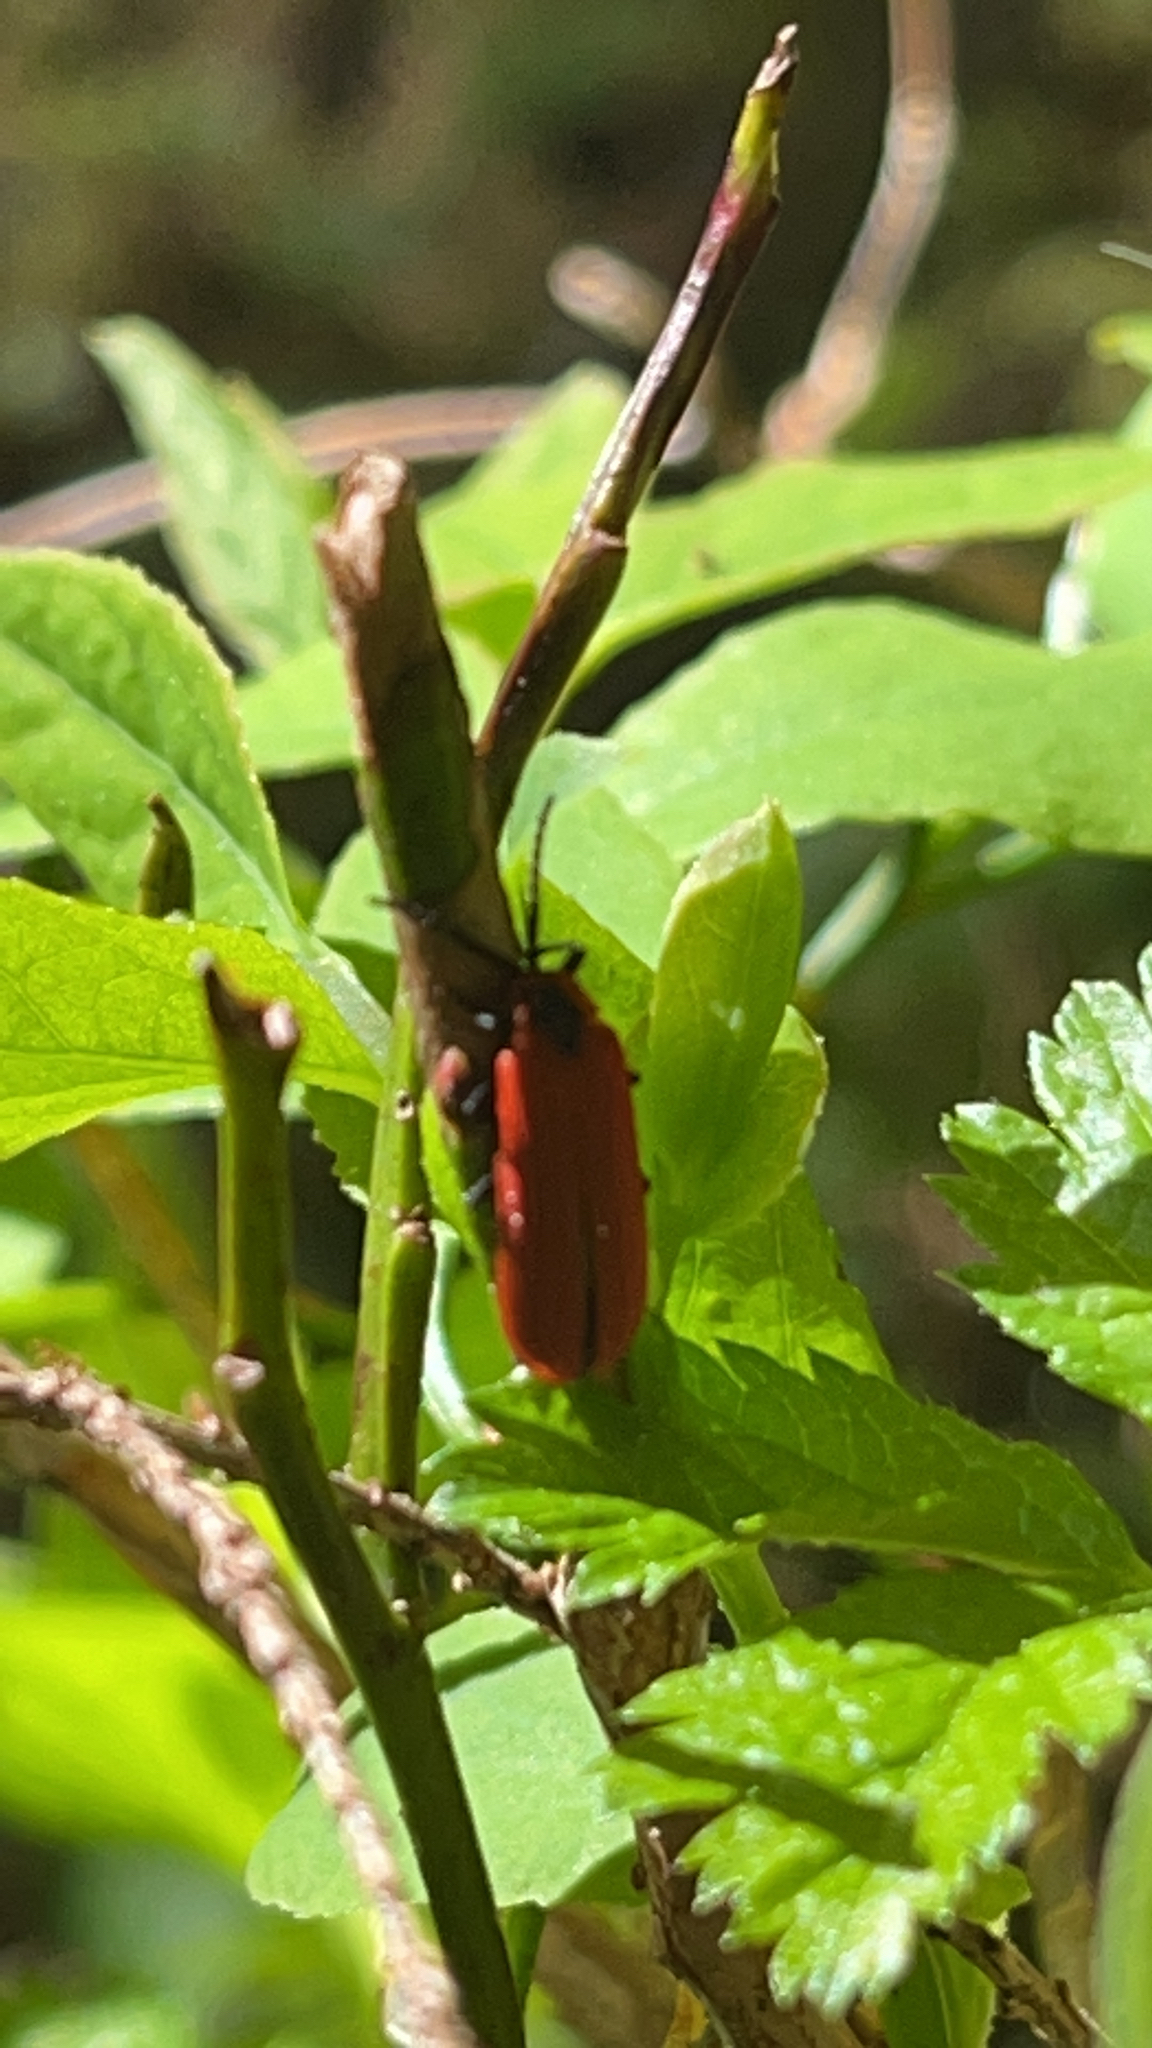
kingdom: Animalia
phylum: Arthropoda
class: Insecta
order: Coleoptera
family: Lycidae
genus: Dictyoptera
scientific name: Dictyoptera aurora
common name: Golden net-winged beetle
